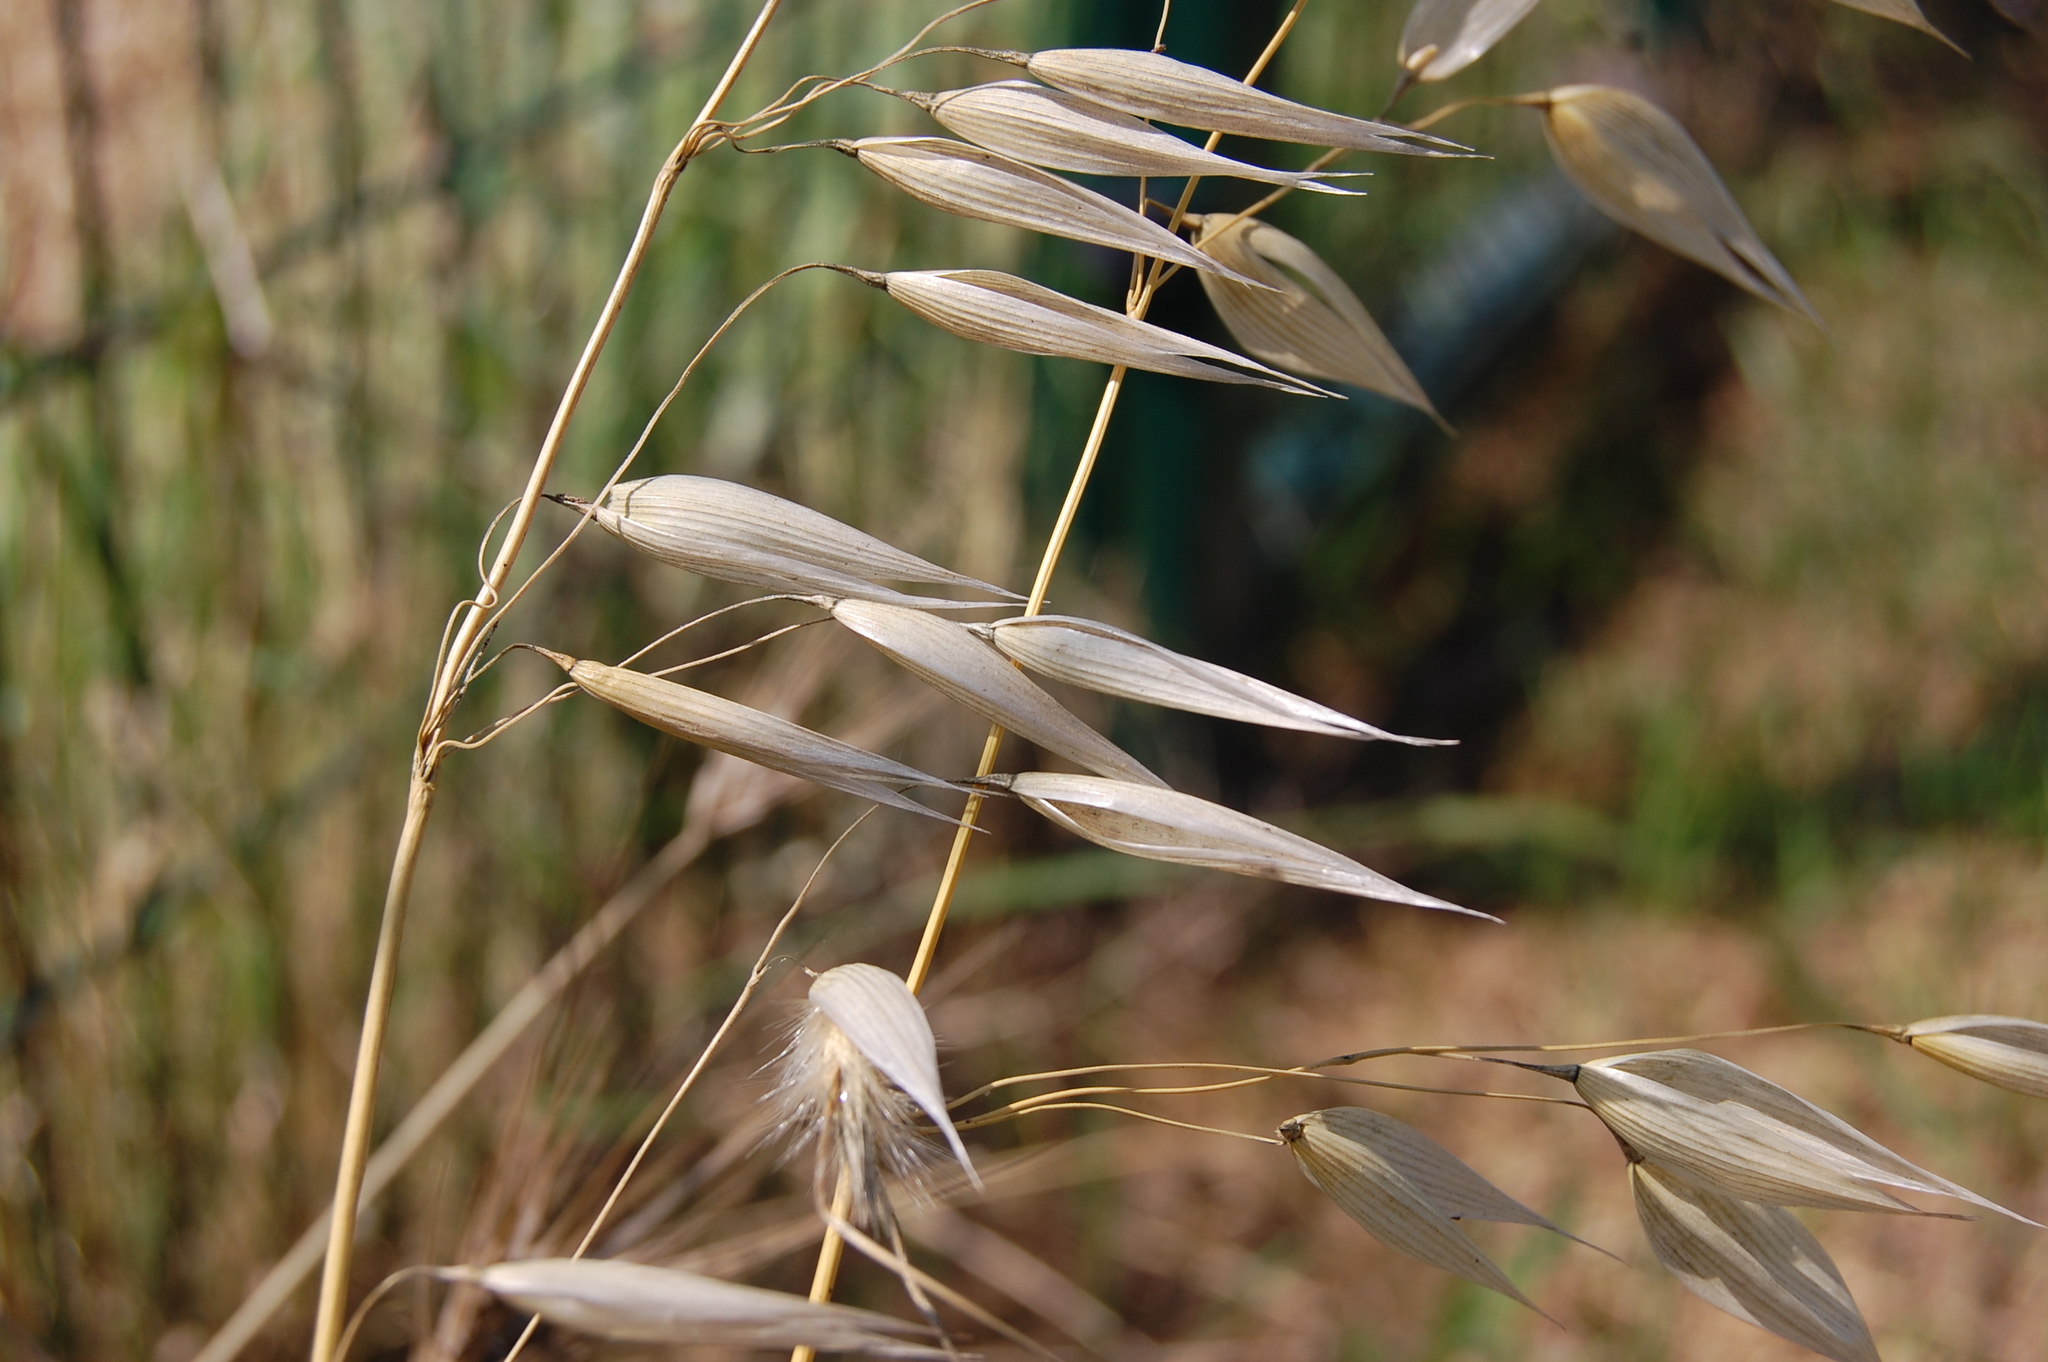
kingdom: Plantae
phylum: Tracheophyta
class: Liliopsida
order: Poales
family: Poaceae
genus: Avena
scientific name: Avena sterilis
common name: Animated oat
